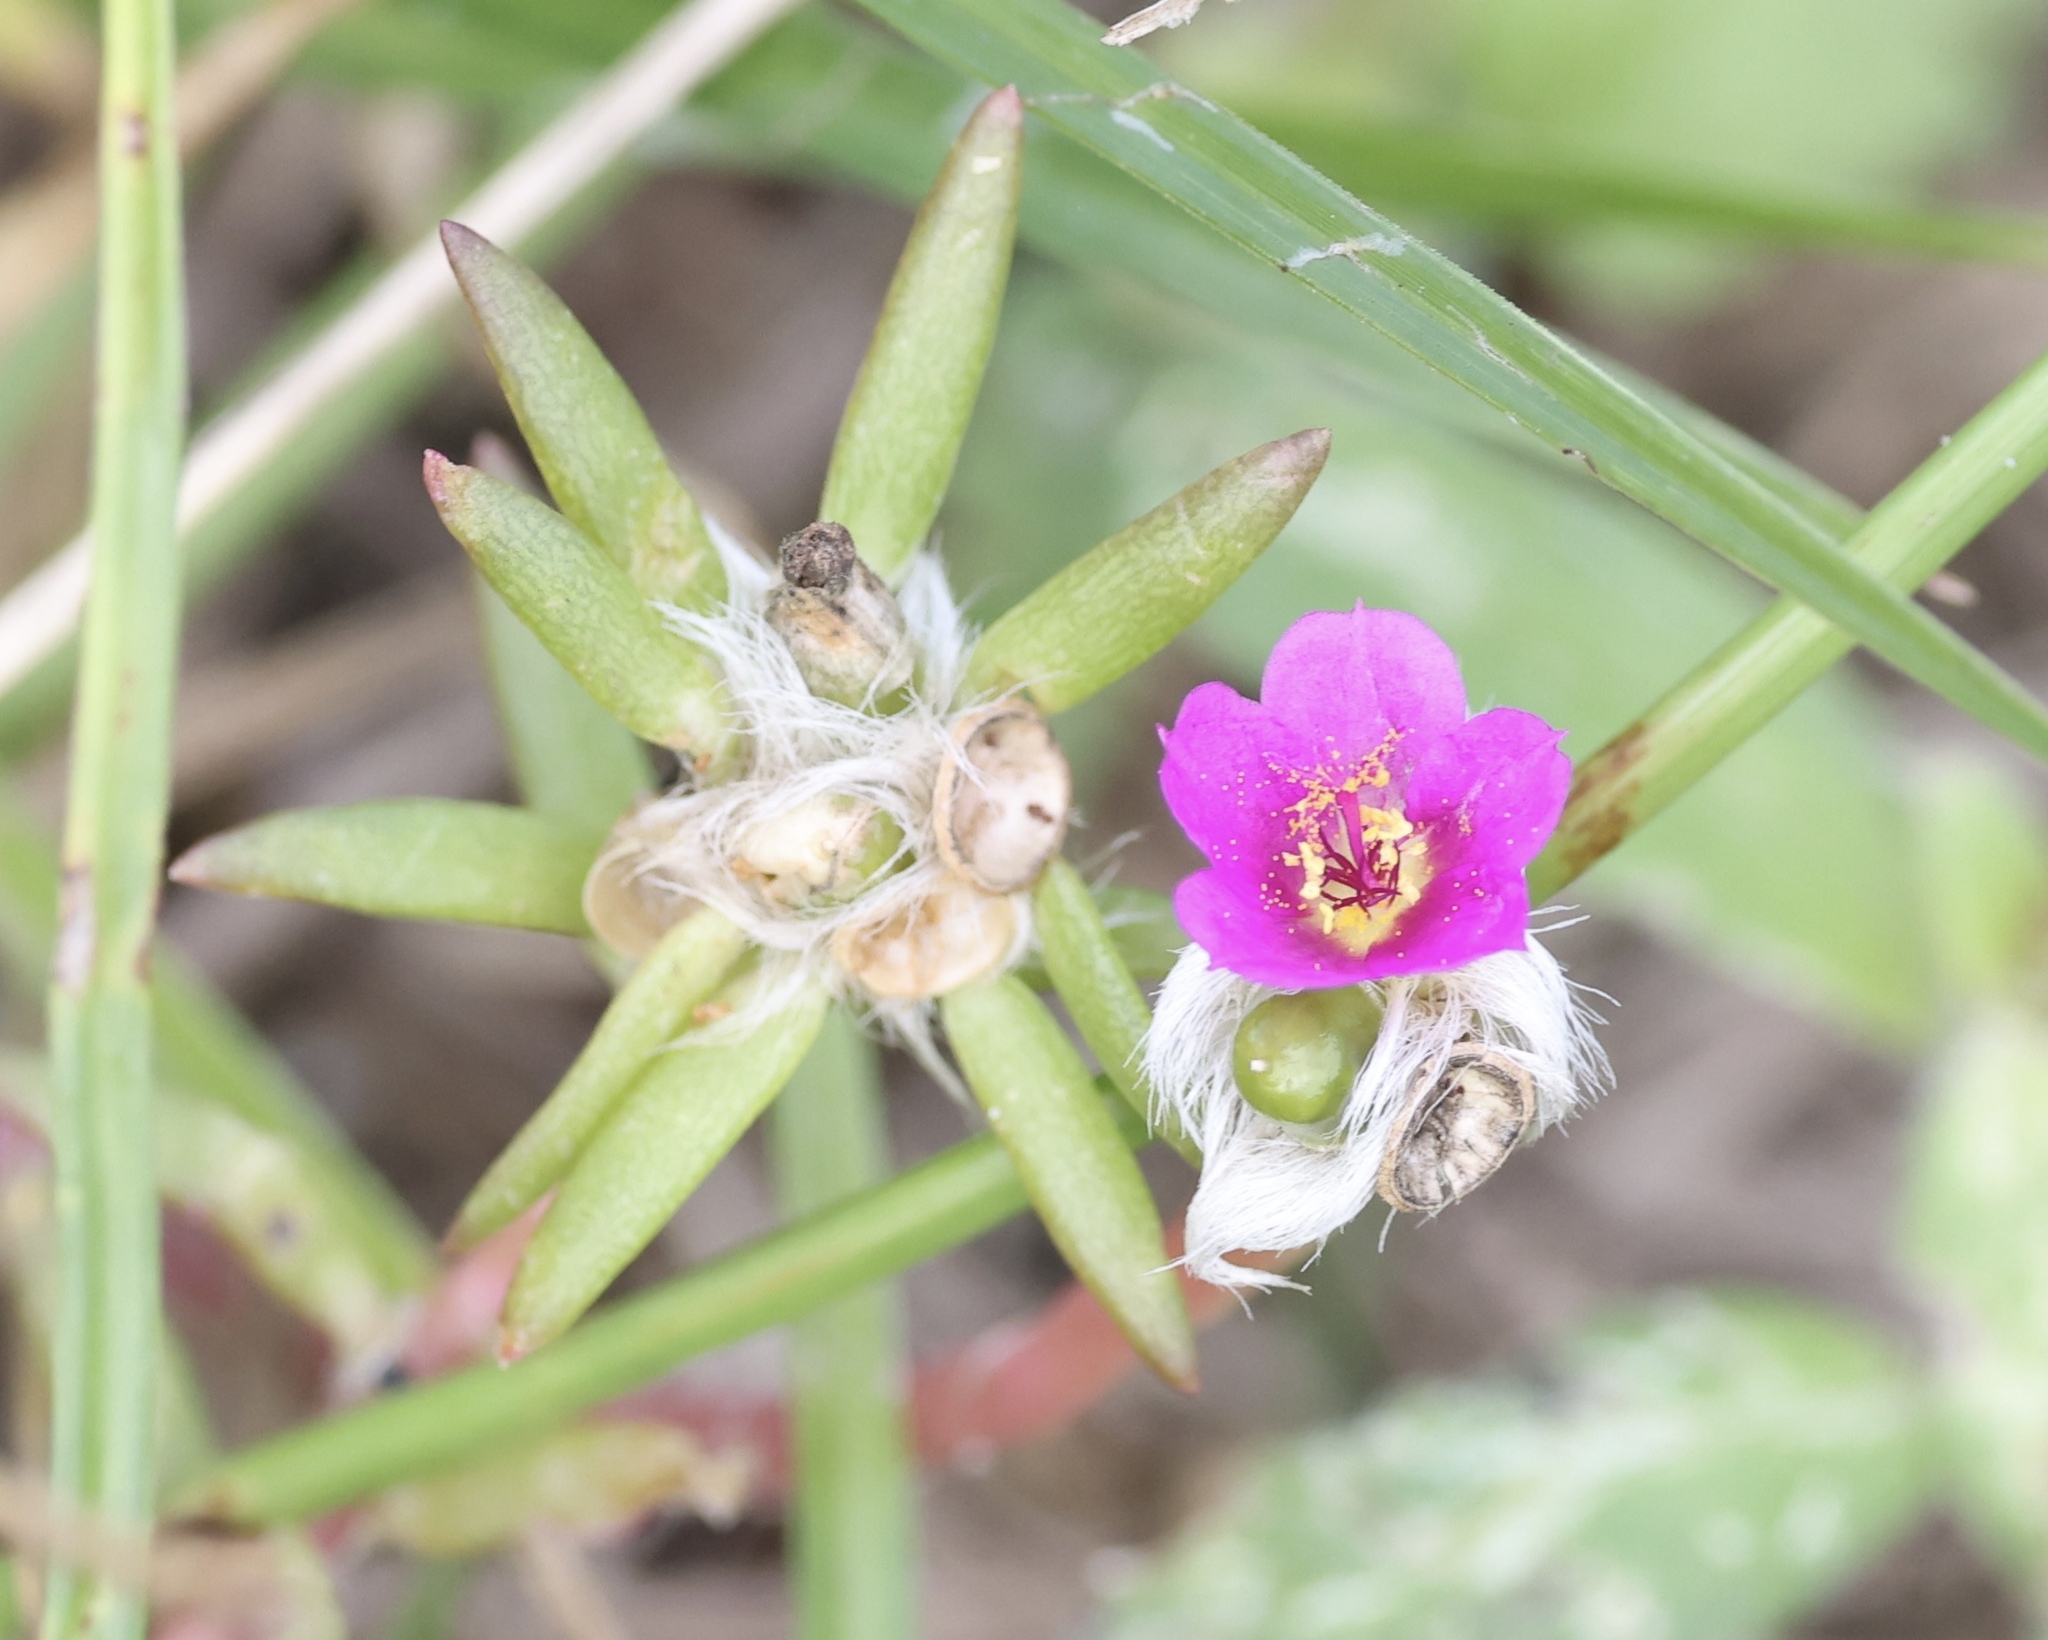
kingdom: Plantae
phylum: Tracheophyta
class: Magnoliopsida
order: Caryophyllales
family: Portulacaceae
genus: Portulaca
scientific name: Portulaca pilosa
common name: Kiss me quick
